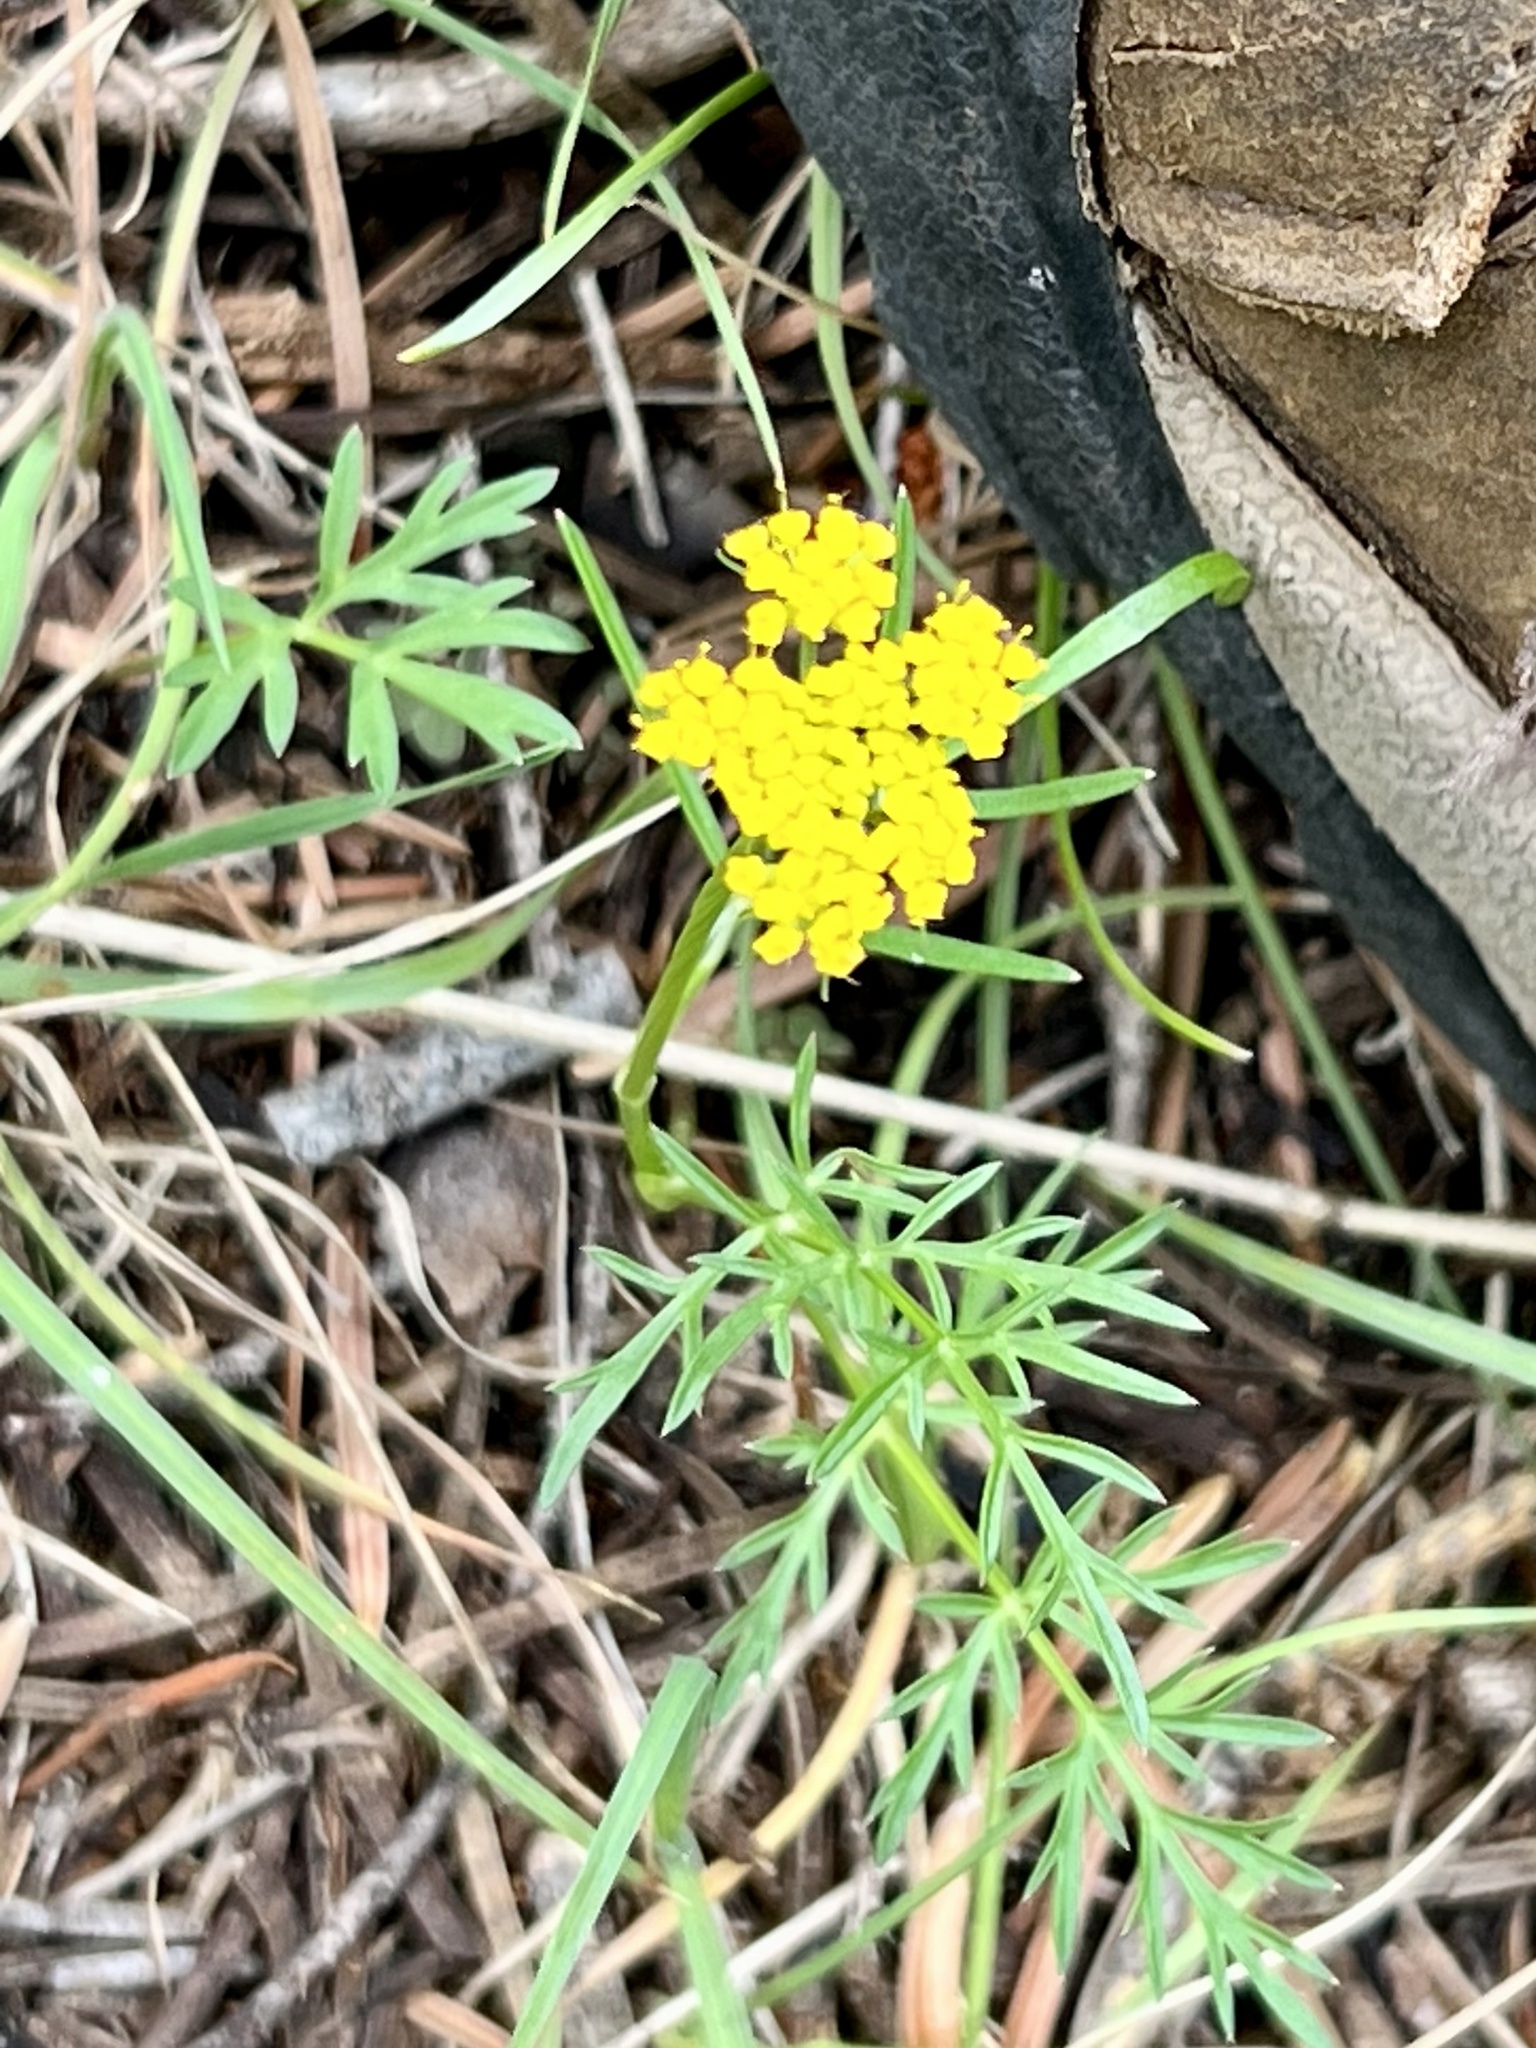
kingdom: Plantae
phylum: Tracheophyta
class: Magnoliopsida
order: Apiales
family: Apiaceae
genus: Cymopterus
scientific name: Cymopterus lemmonii
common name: Lemmon's spring-parsley
